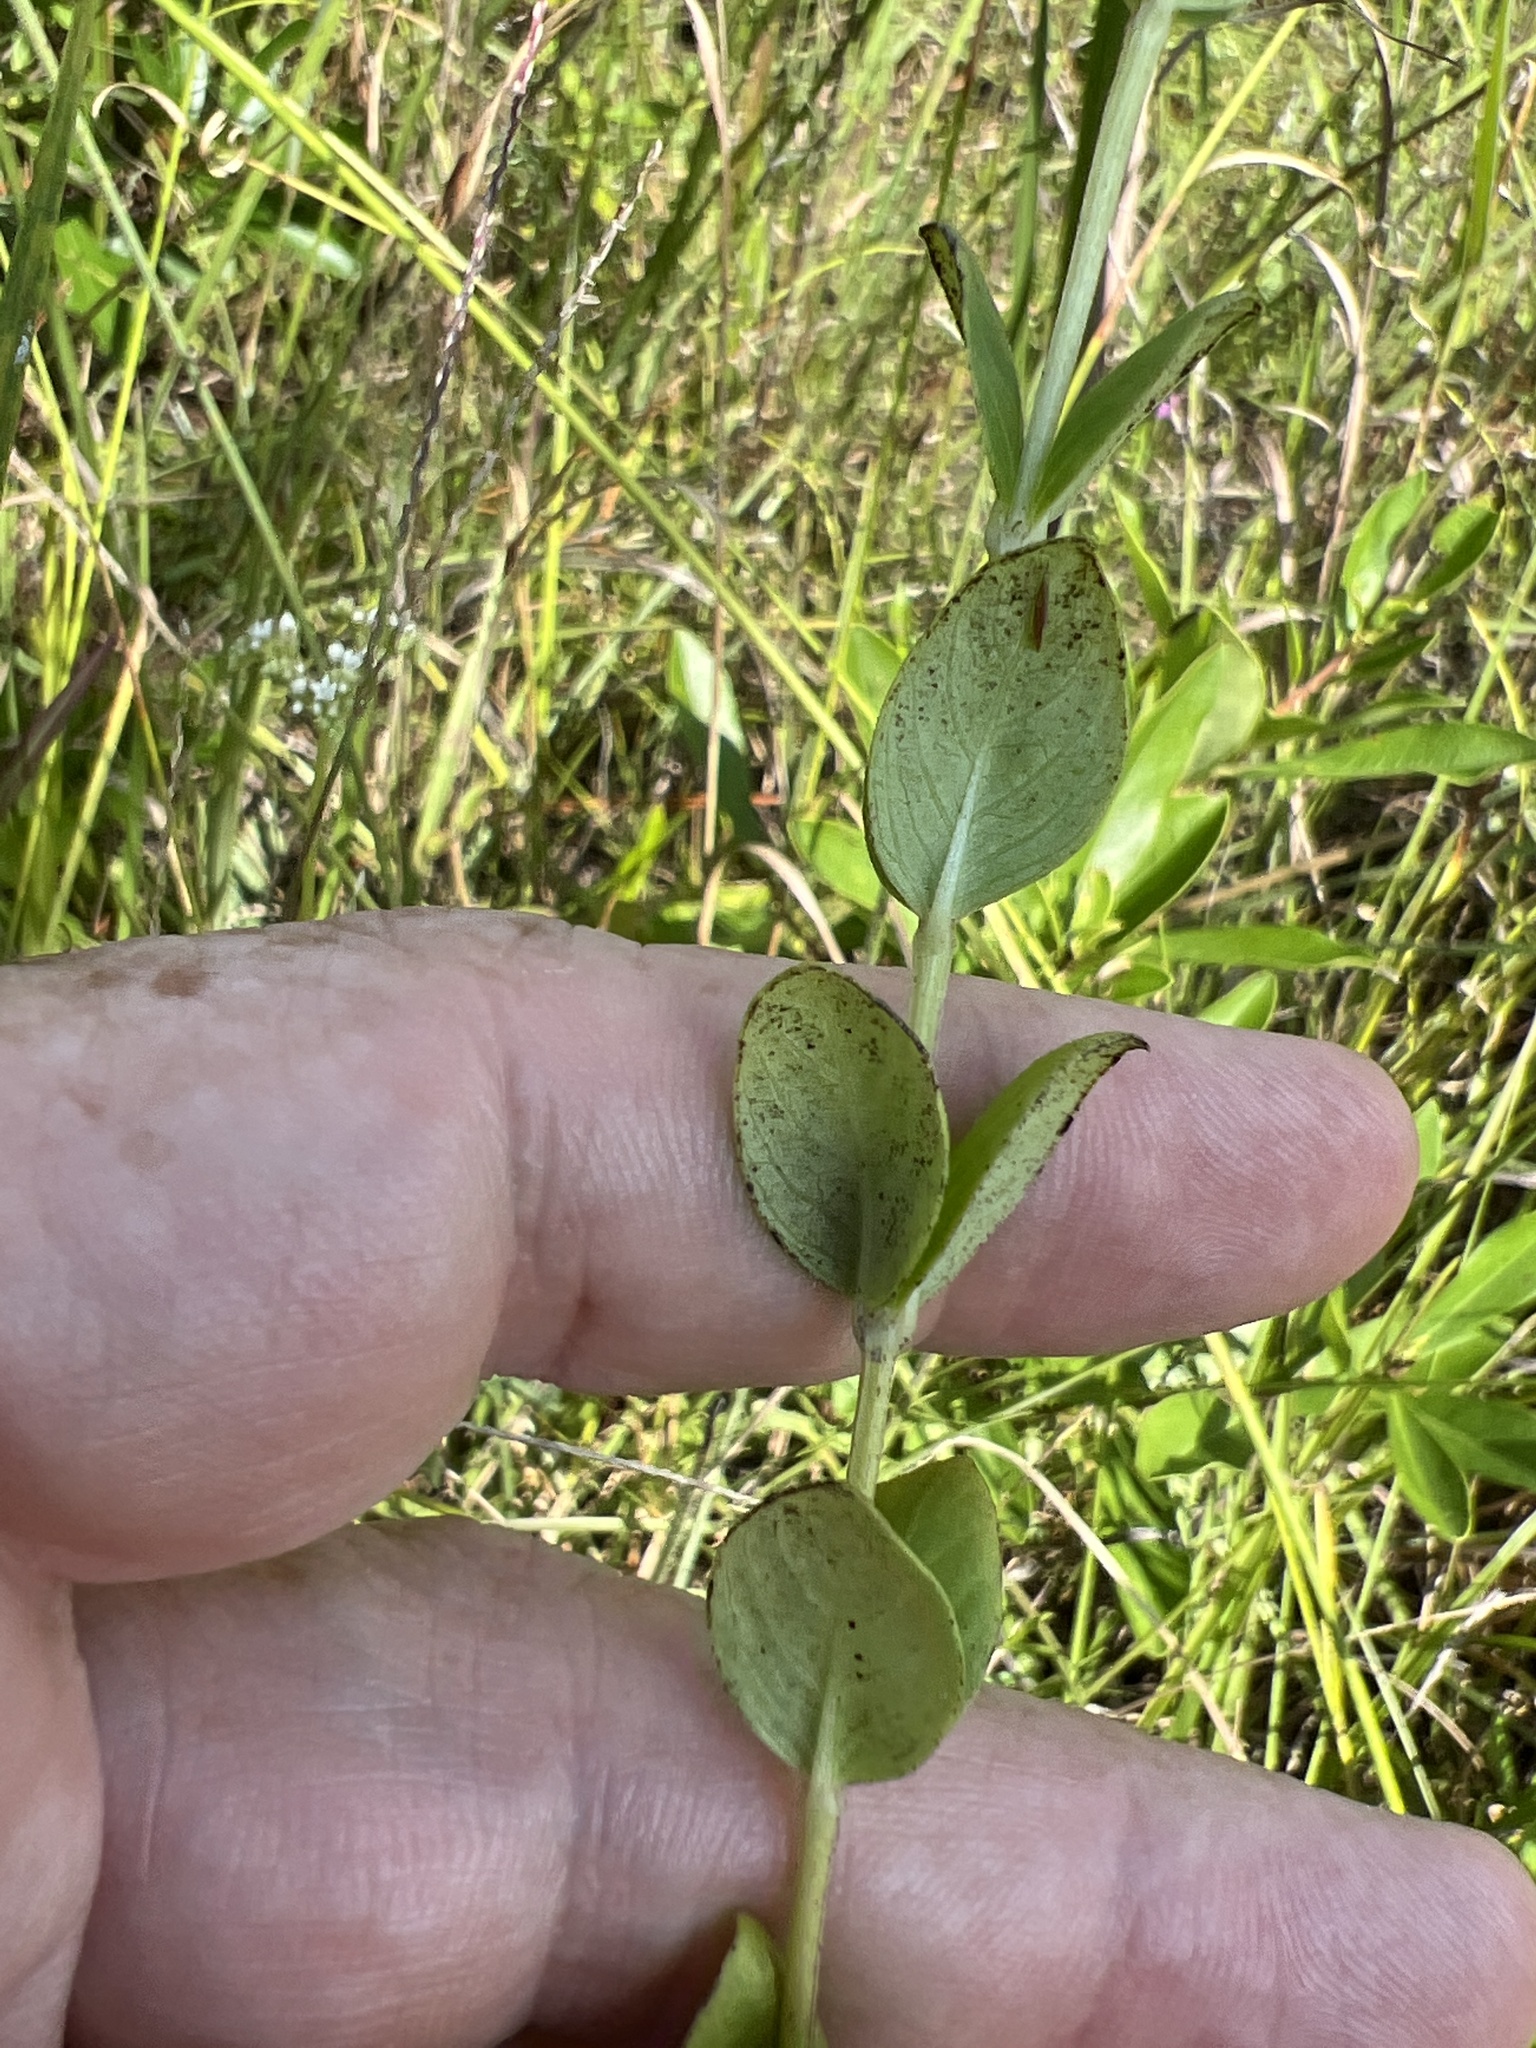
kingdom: Plantae
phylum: Tracheophyta
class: Magnoliopsida
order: Gentianales
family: Loganiaceae
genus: Mitreola
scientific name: Mitreola sessilifolia
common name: Swamp hornpod
